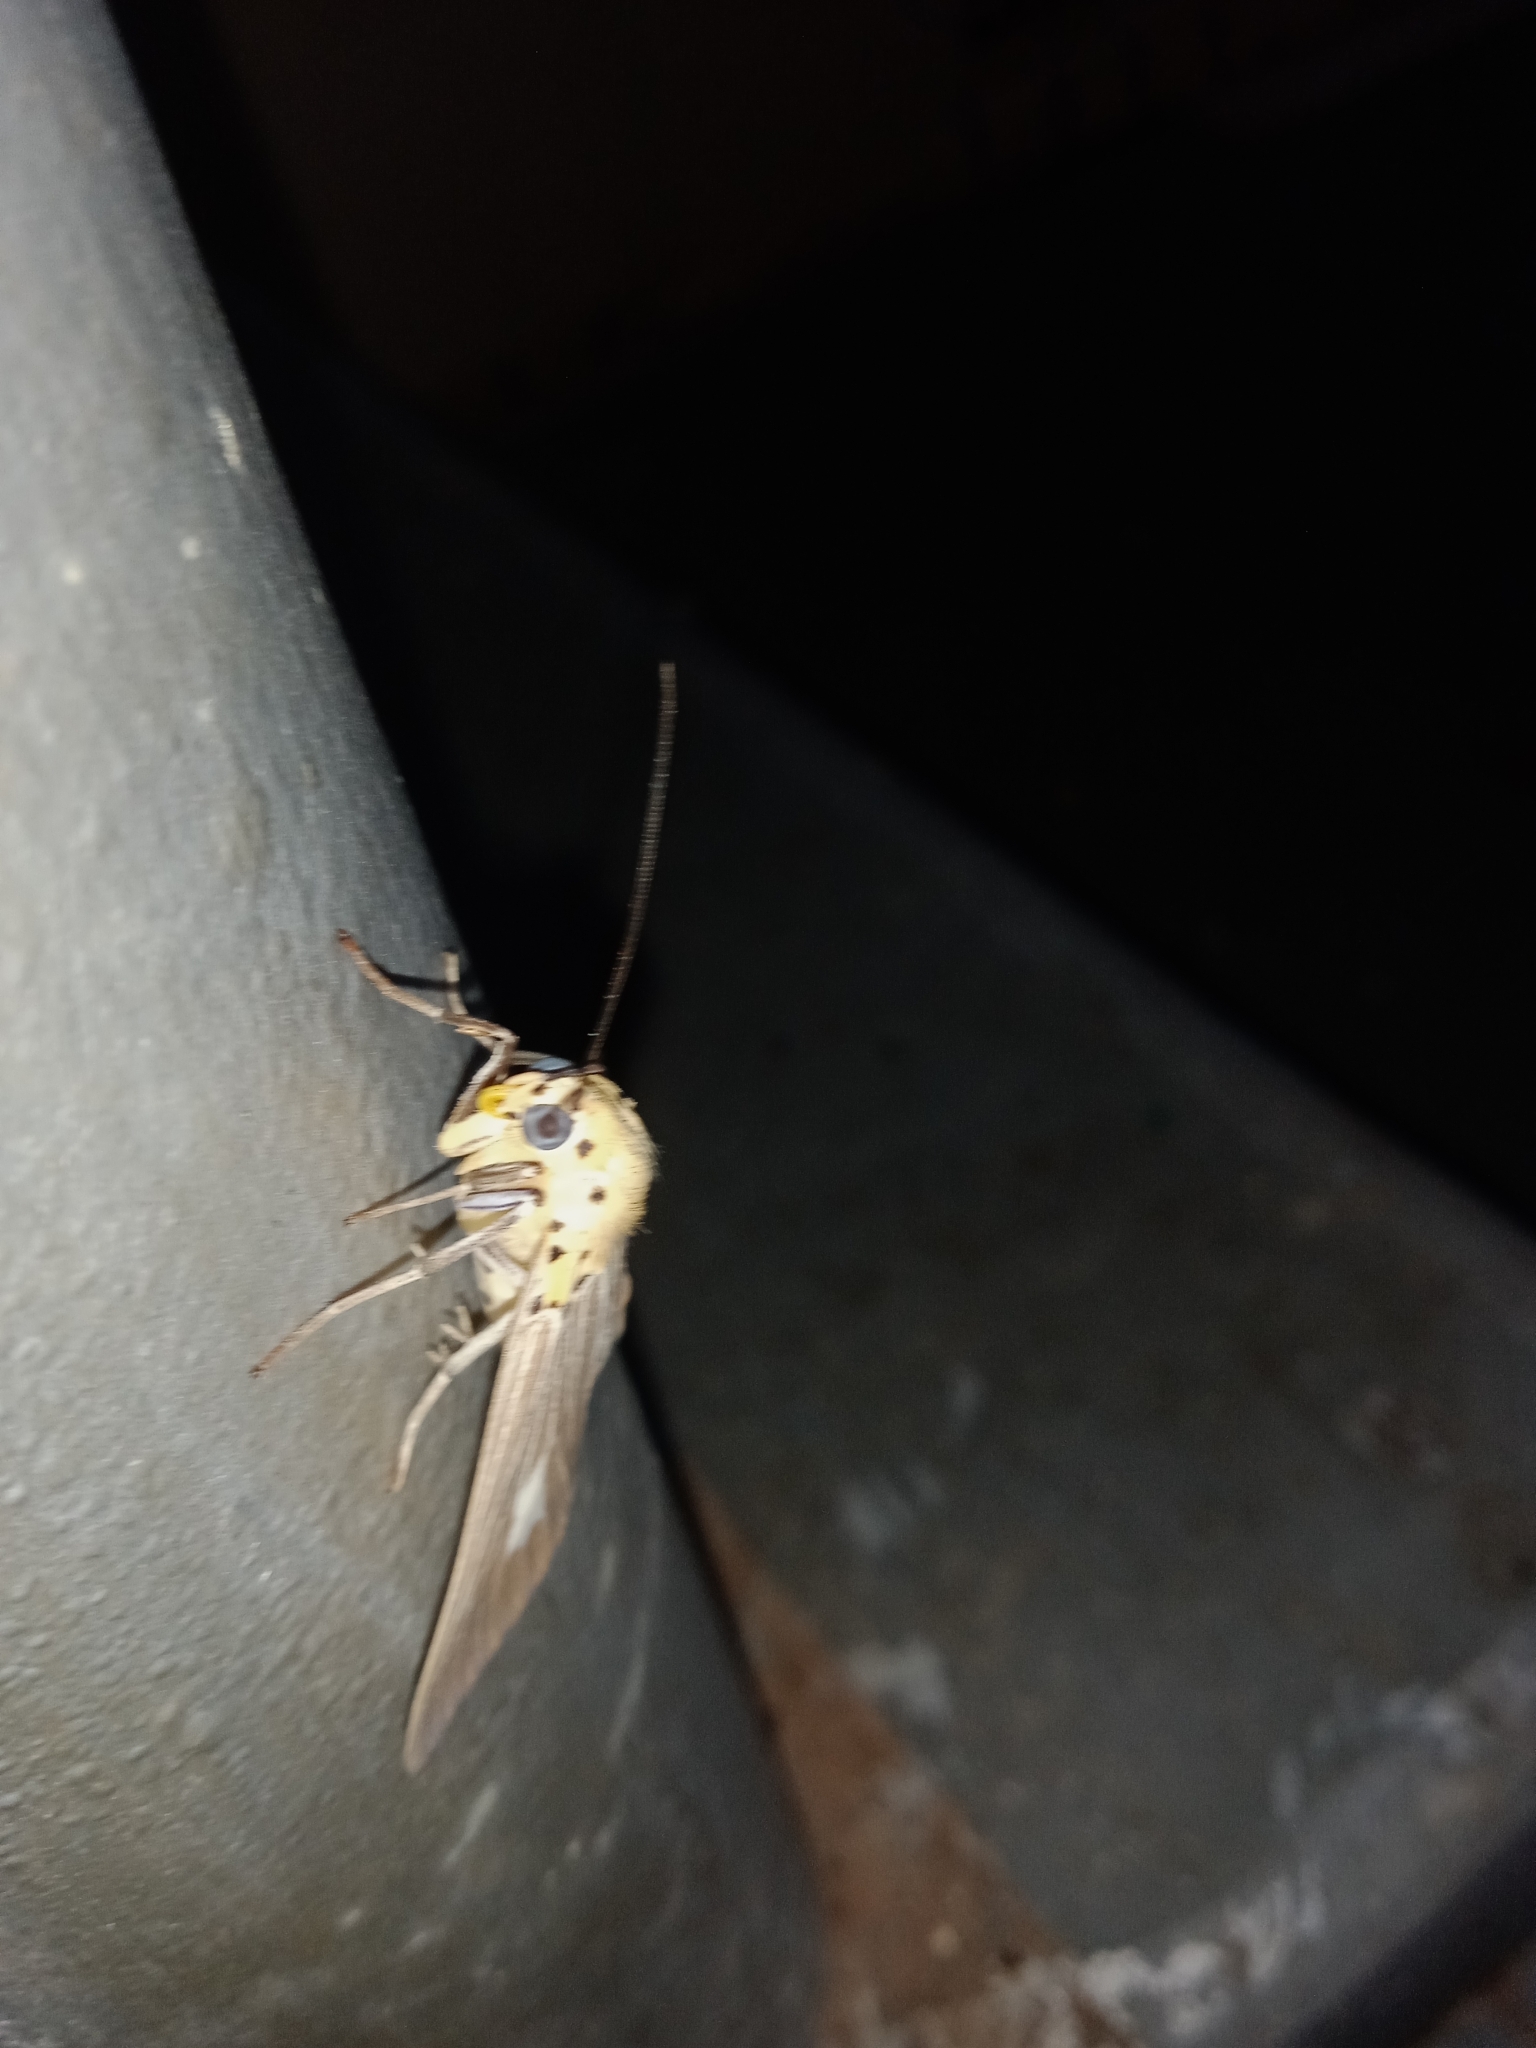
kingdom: Animalia
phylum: Arthropoda
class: Insecta
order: Lepidoptera
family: Erebidae
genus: Asota
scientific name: Asota canaraica
